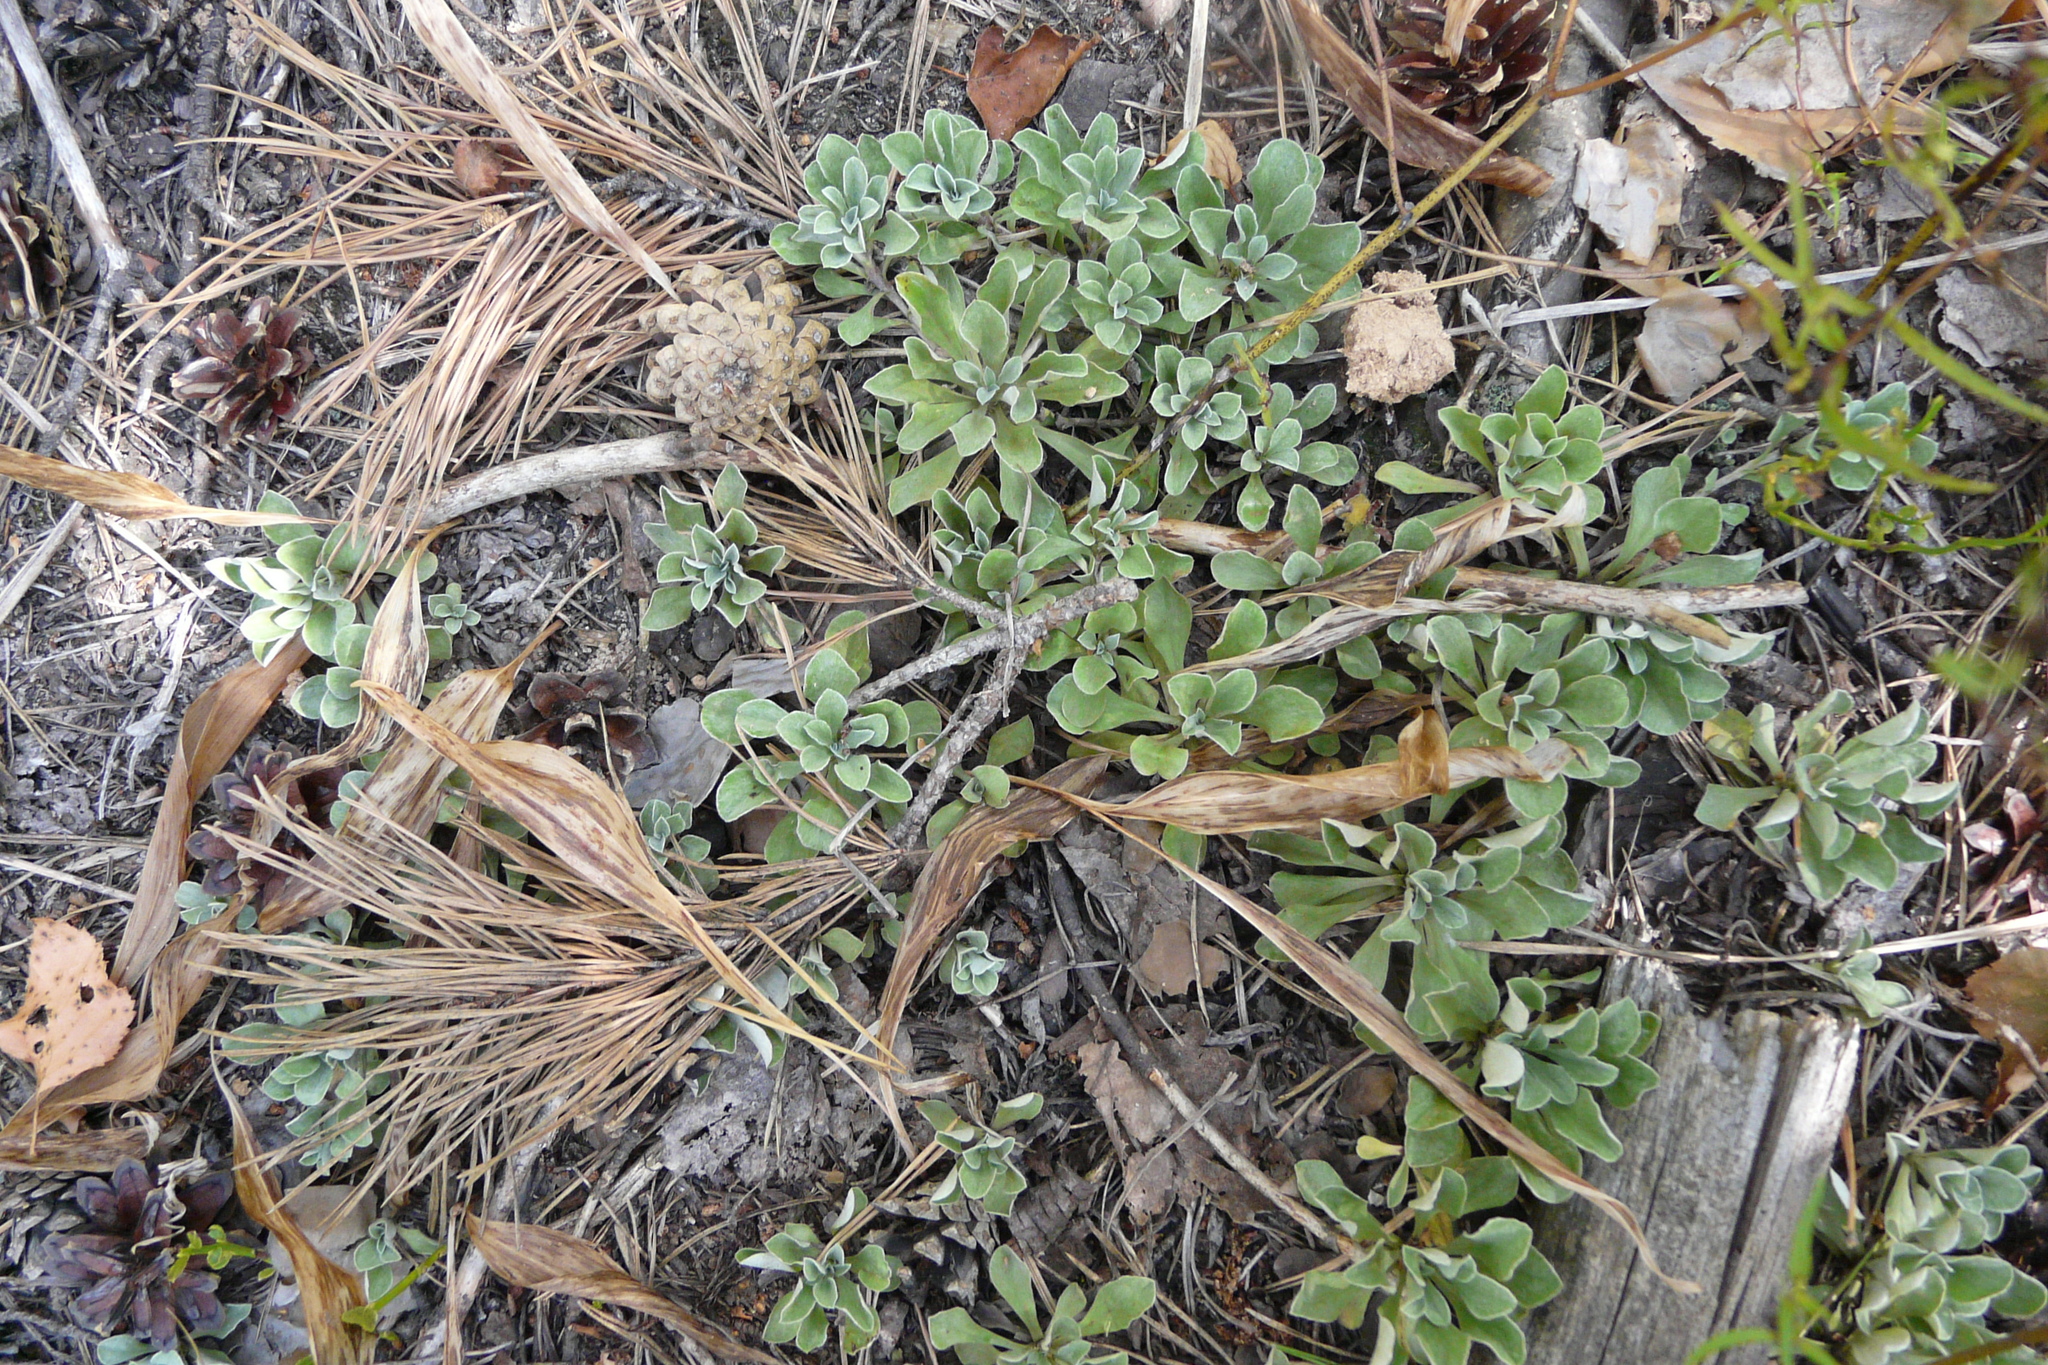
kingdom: Plantae
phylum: Tracheophyta
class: Magnoliopsida
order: Asterales
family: Asteraceae
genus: Antennaria
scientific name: Antennaria dioica
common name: Mountain everlasting
